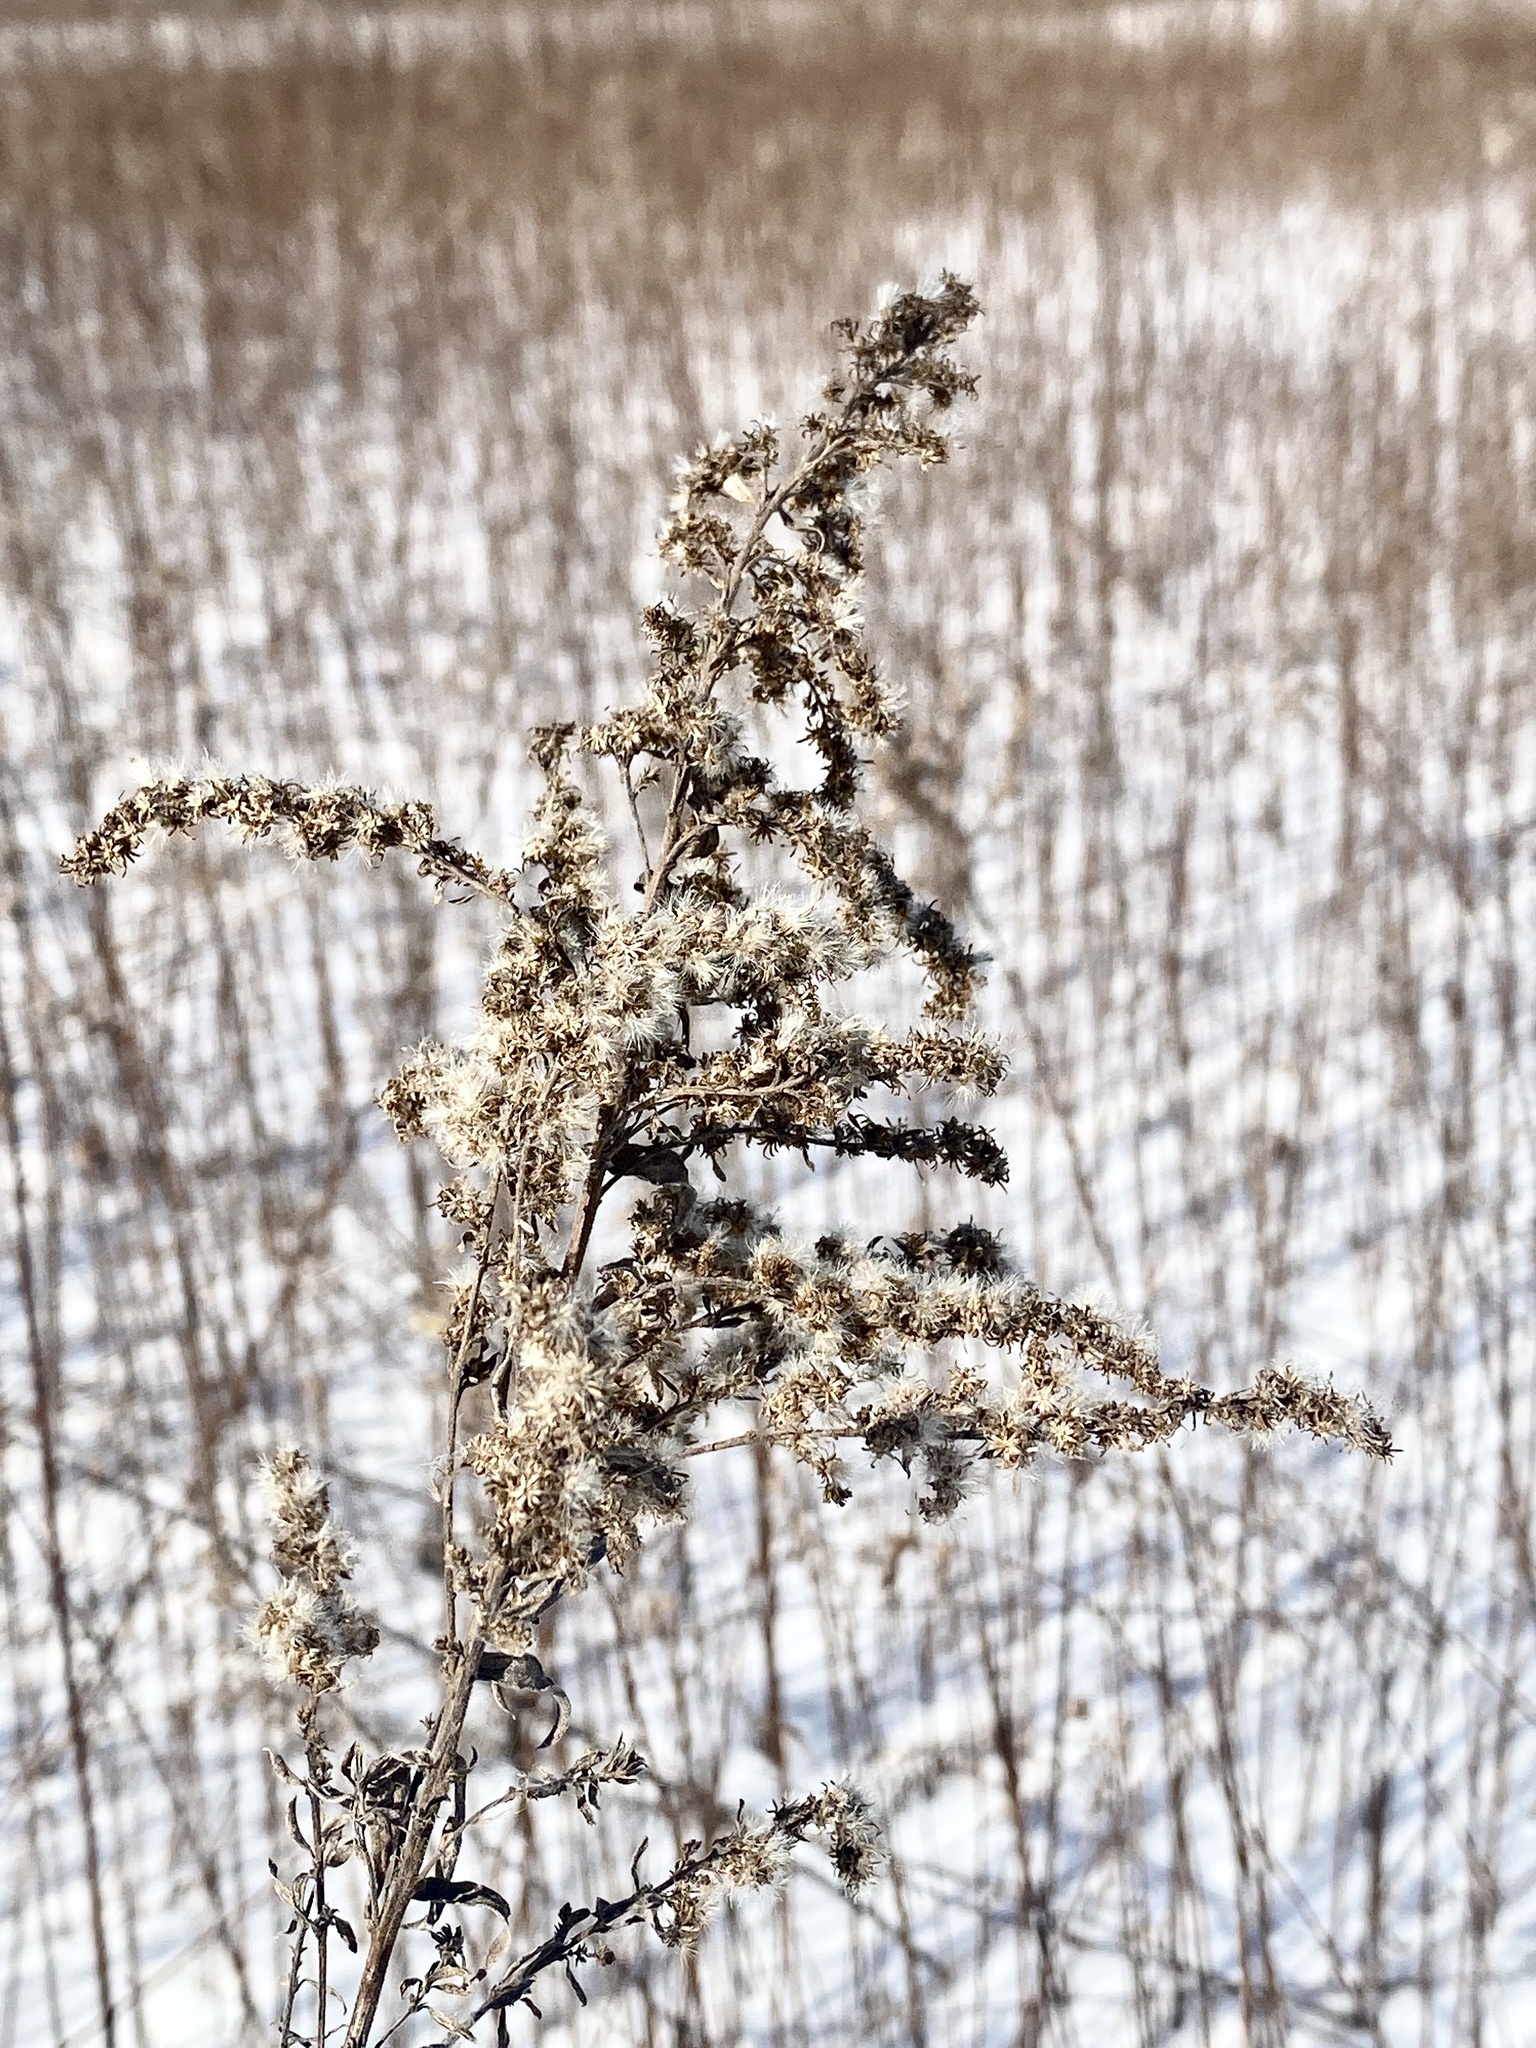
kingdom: Plantae
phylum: Tracheophyta
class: Magnoliopsida
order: Asterales
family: Asteraceae
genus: Solidago
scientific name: Solidago
